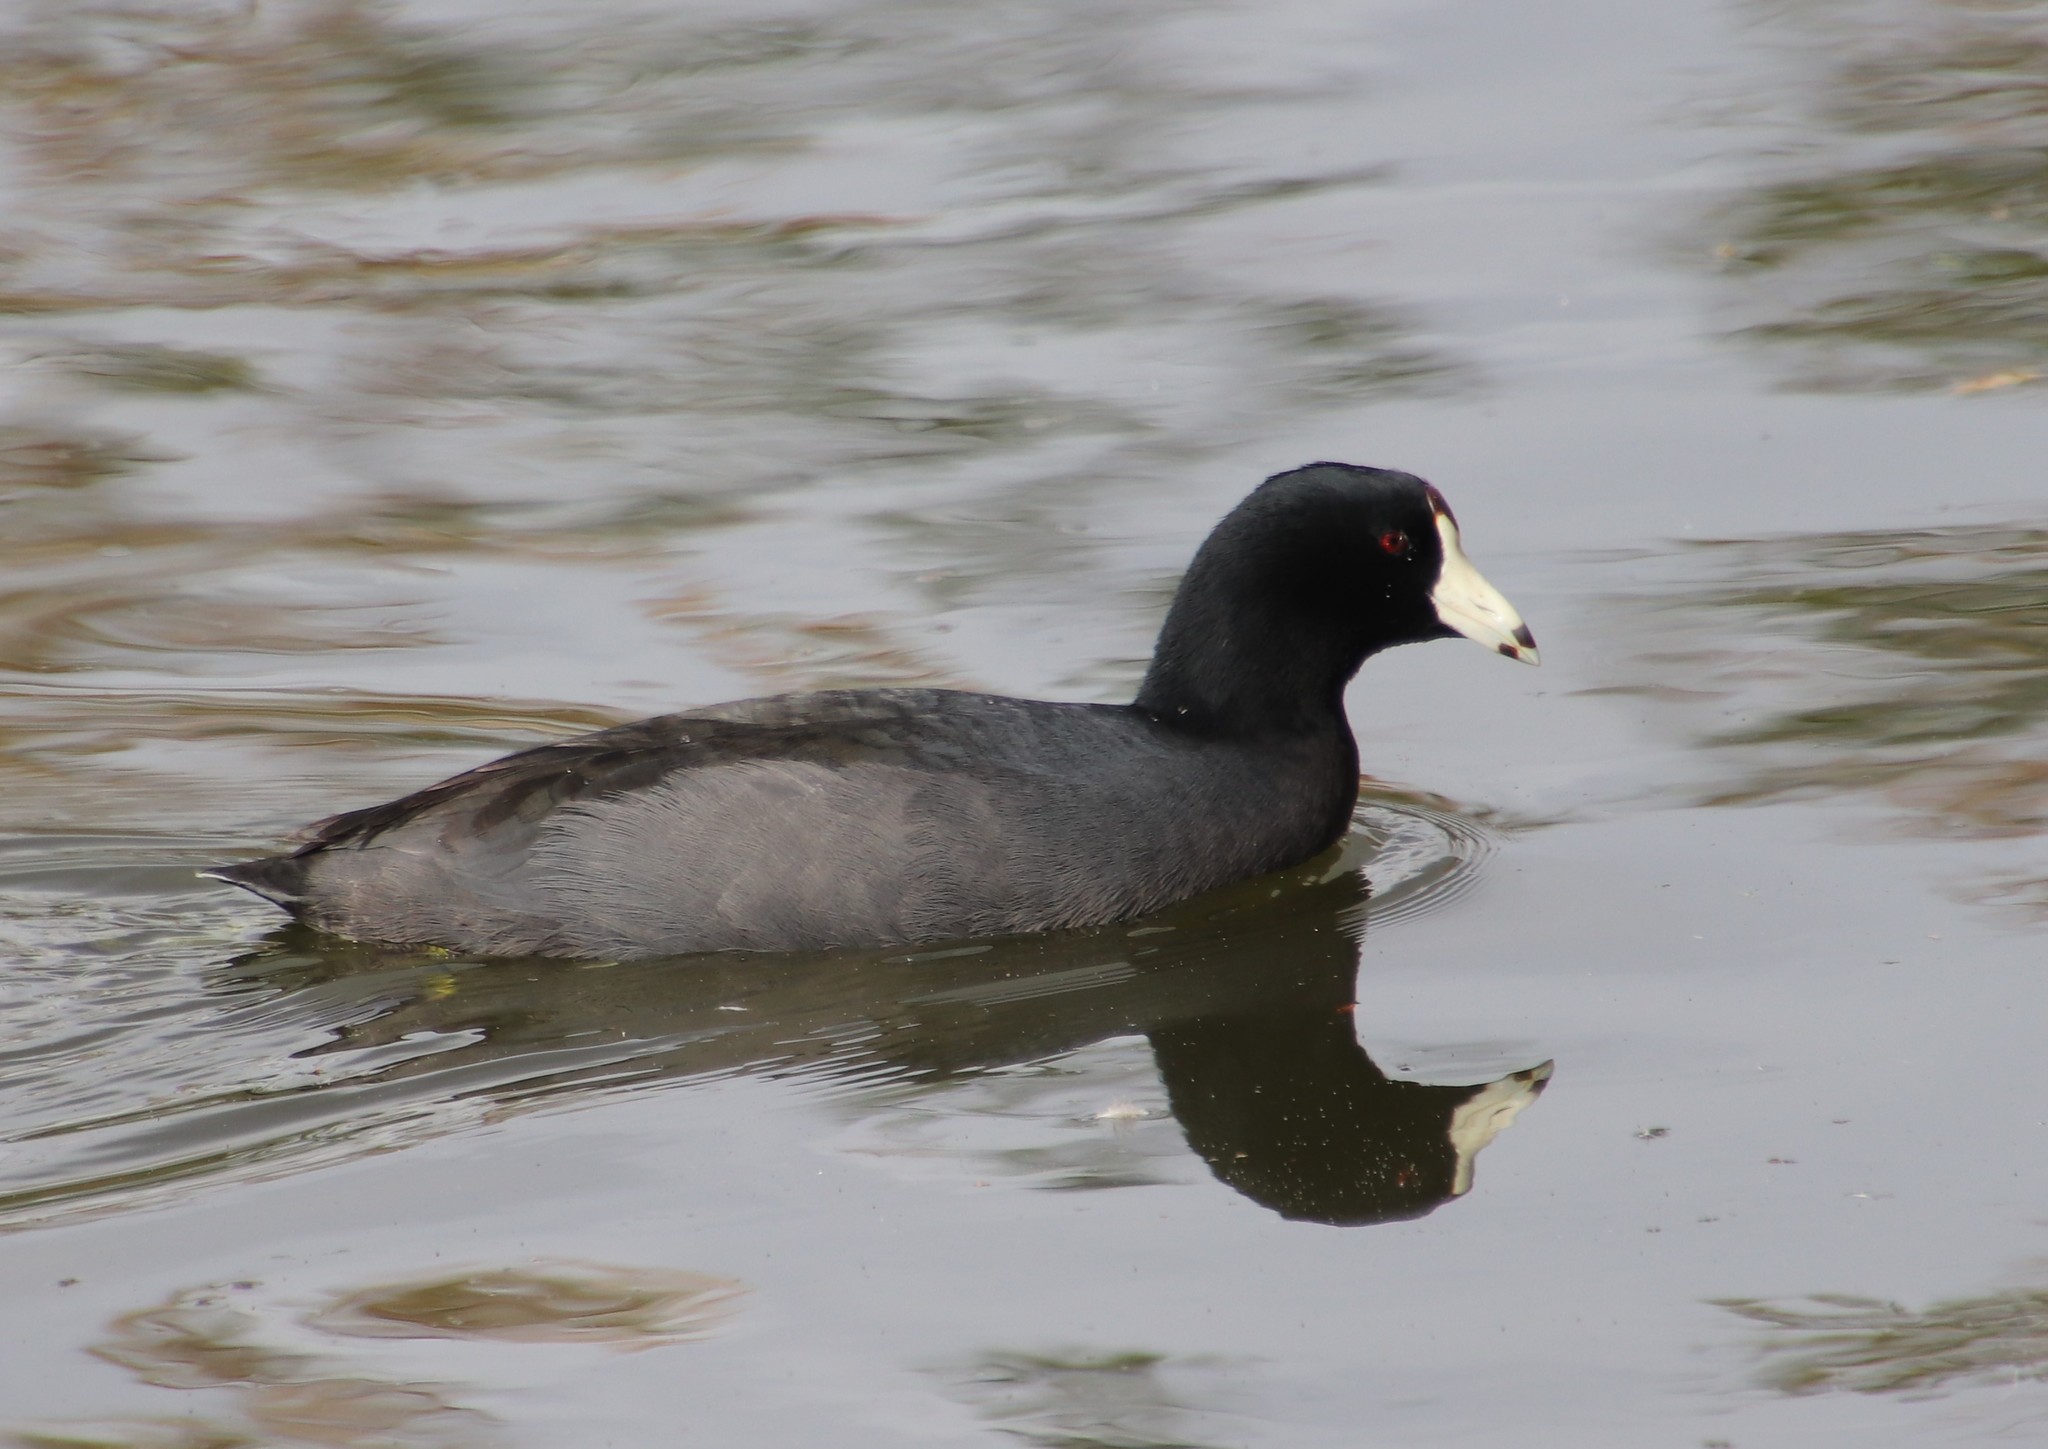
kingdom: Animalia
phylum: Chordata
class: Aves
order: Gruiformes
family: Rallidae
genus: Fulica
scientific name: Fulica americana
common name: American coot
